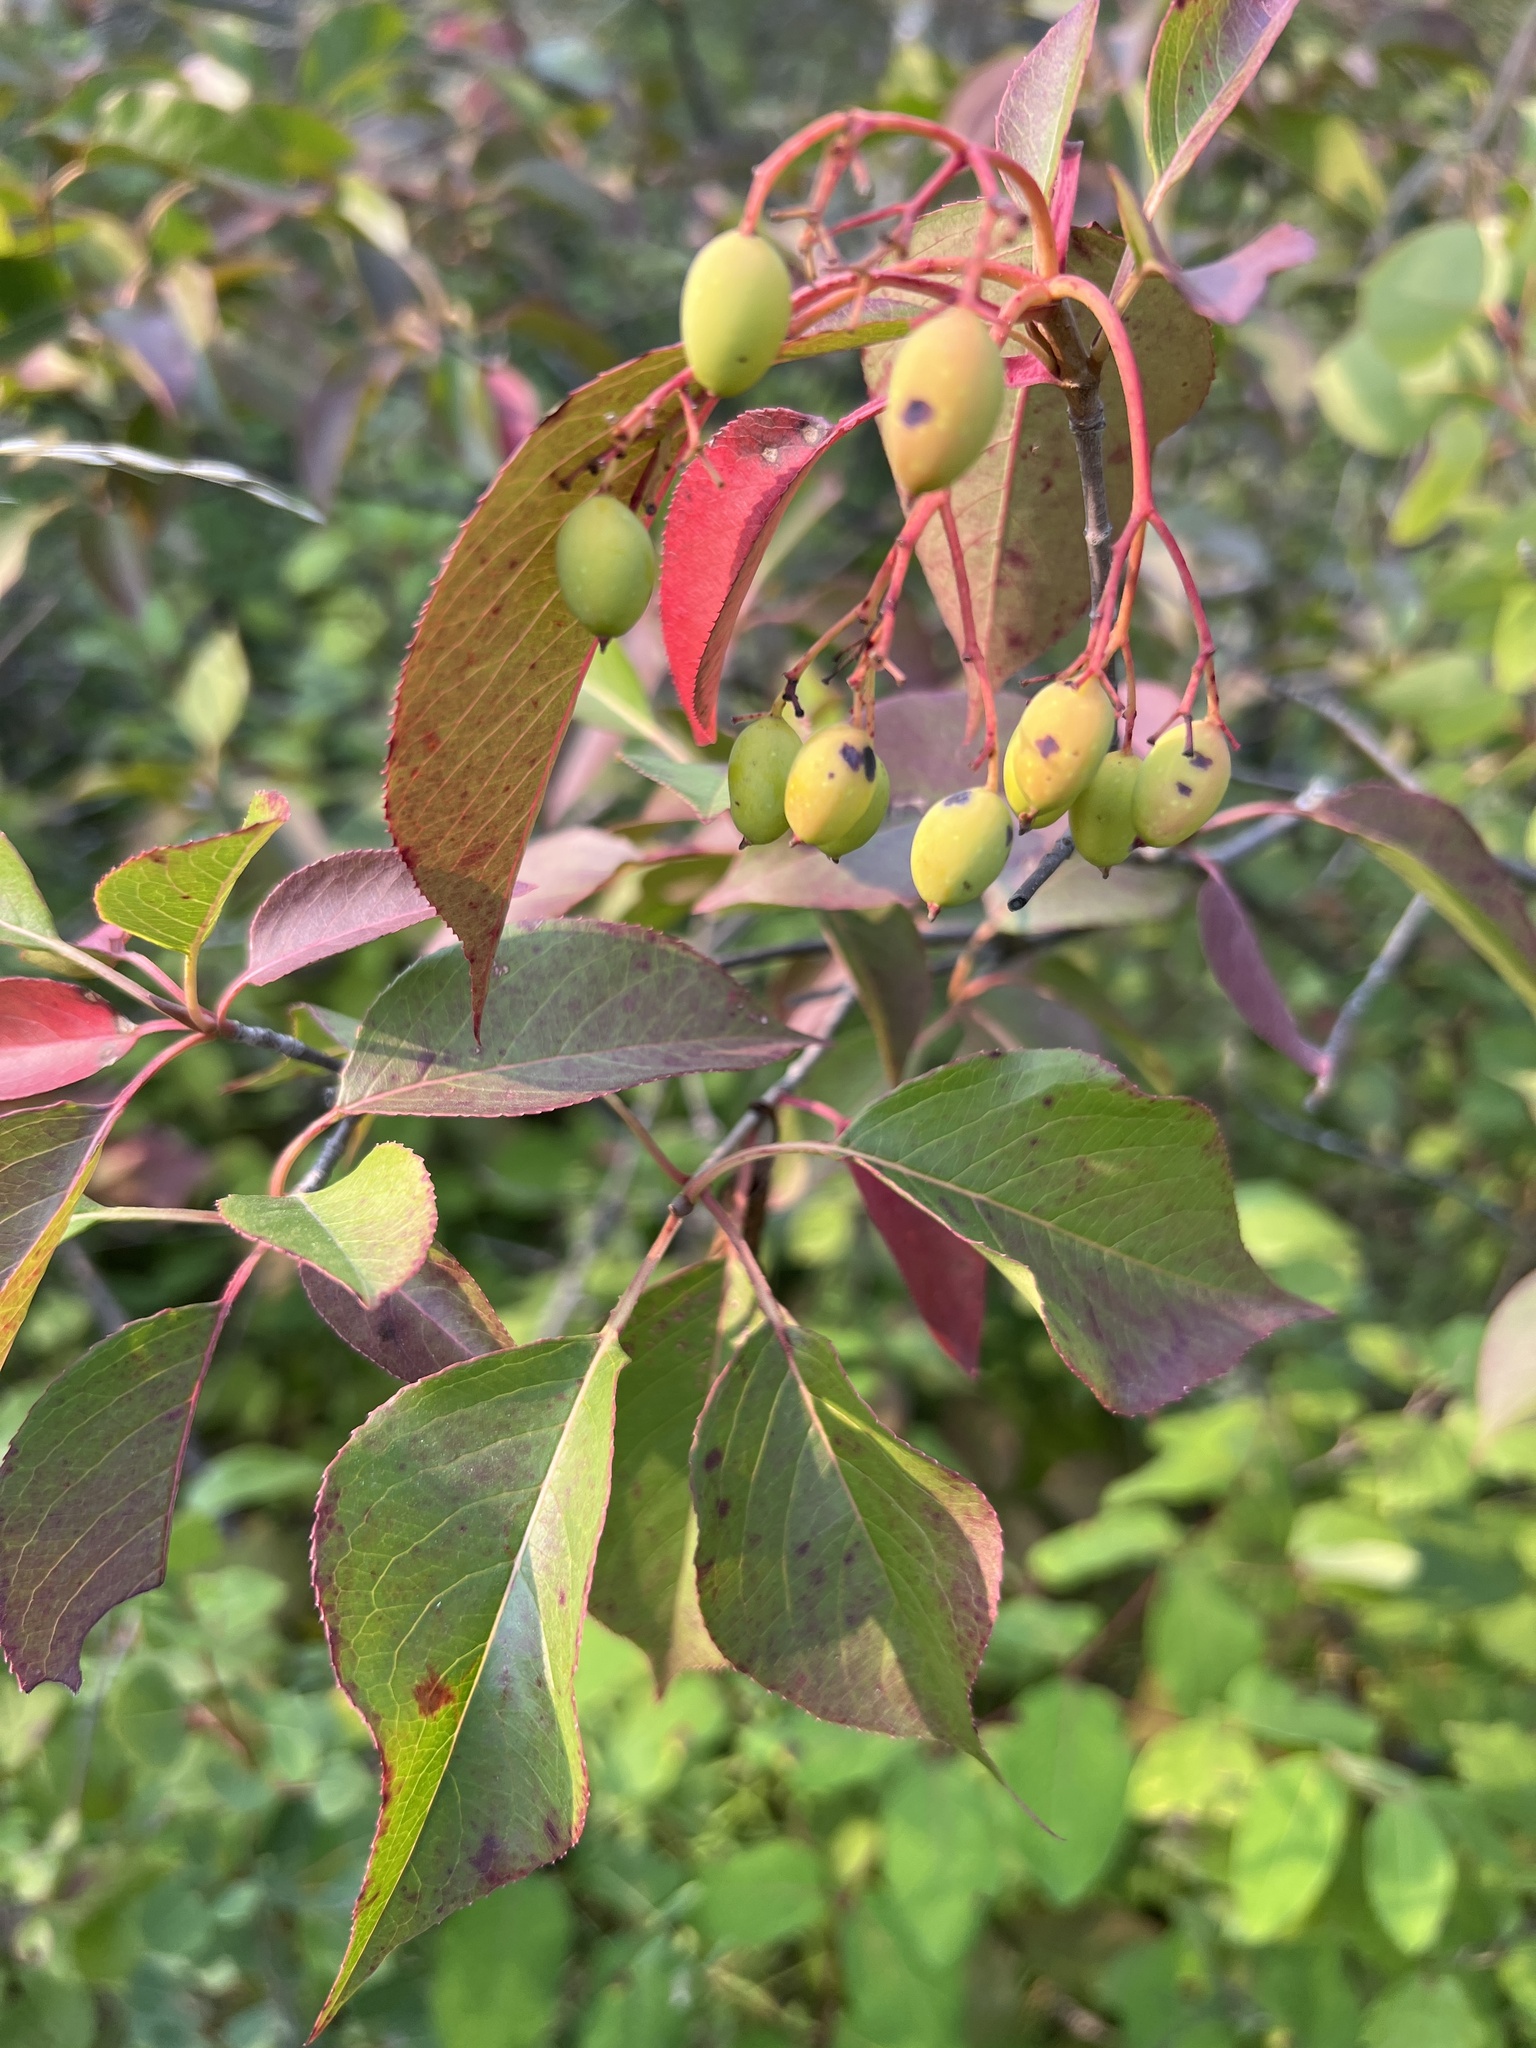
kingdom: Plantae
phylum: Tracheophyta
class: Magnoliopsida
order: Dipsacales
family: Viburnaceae
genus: Viburnum
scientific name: Viburnum lentago
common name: Black haw
